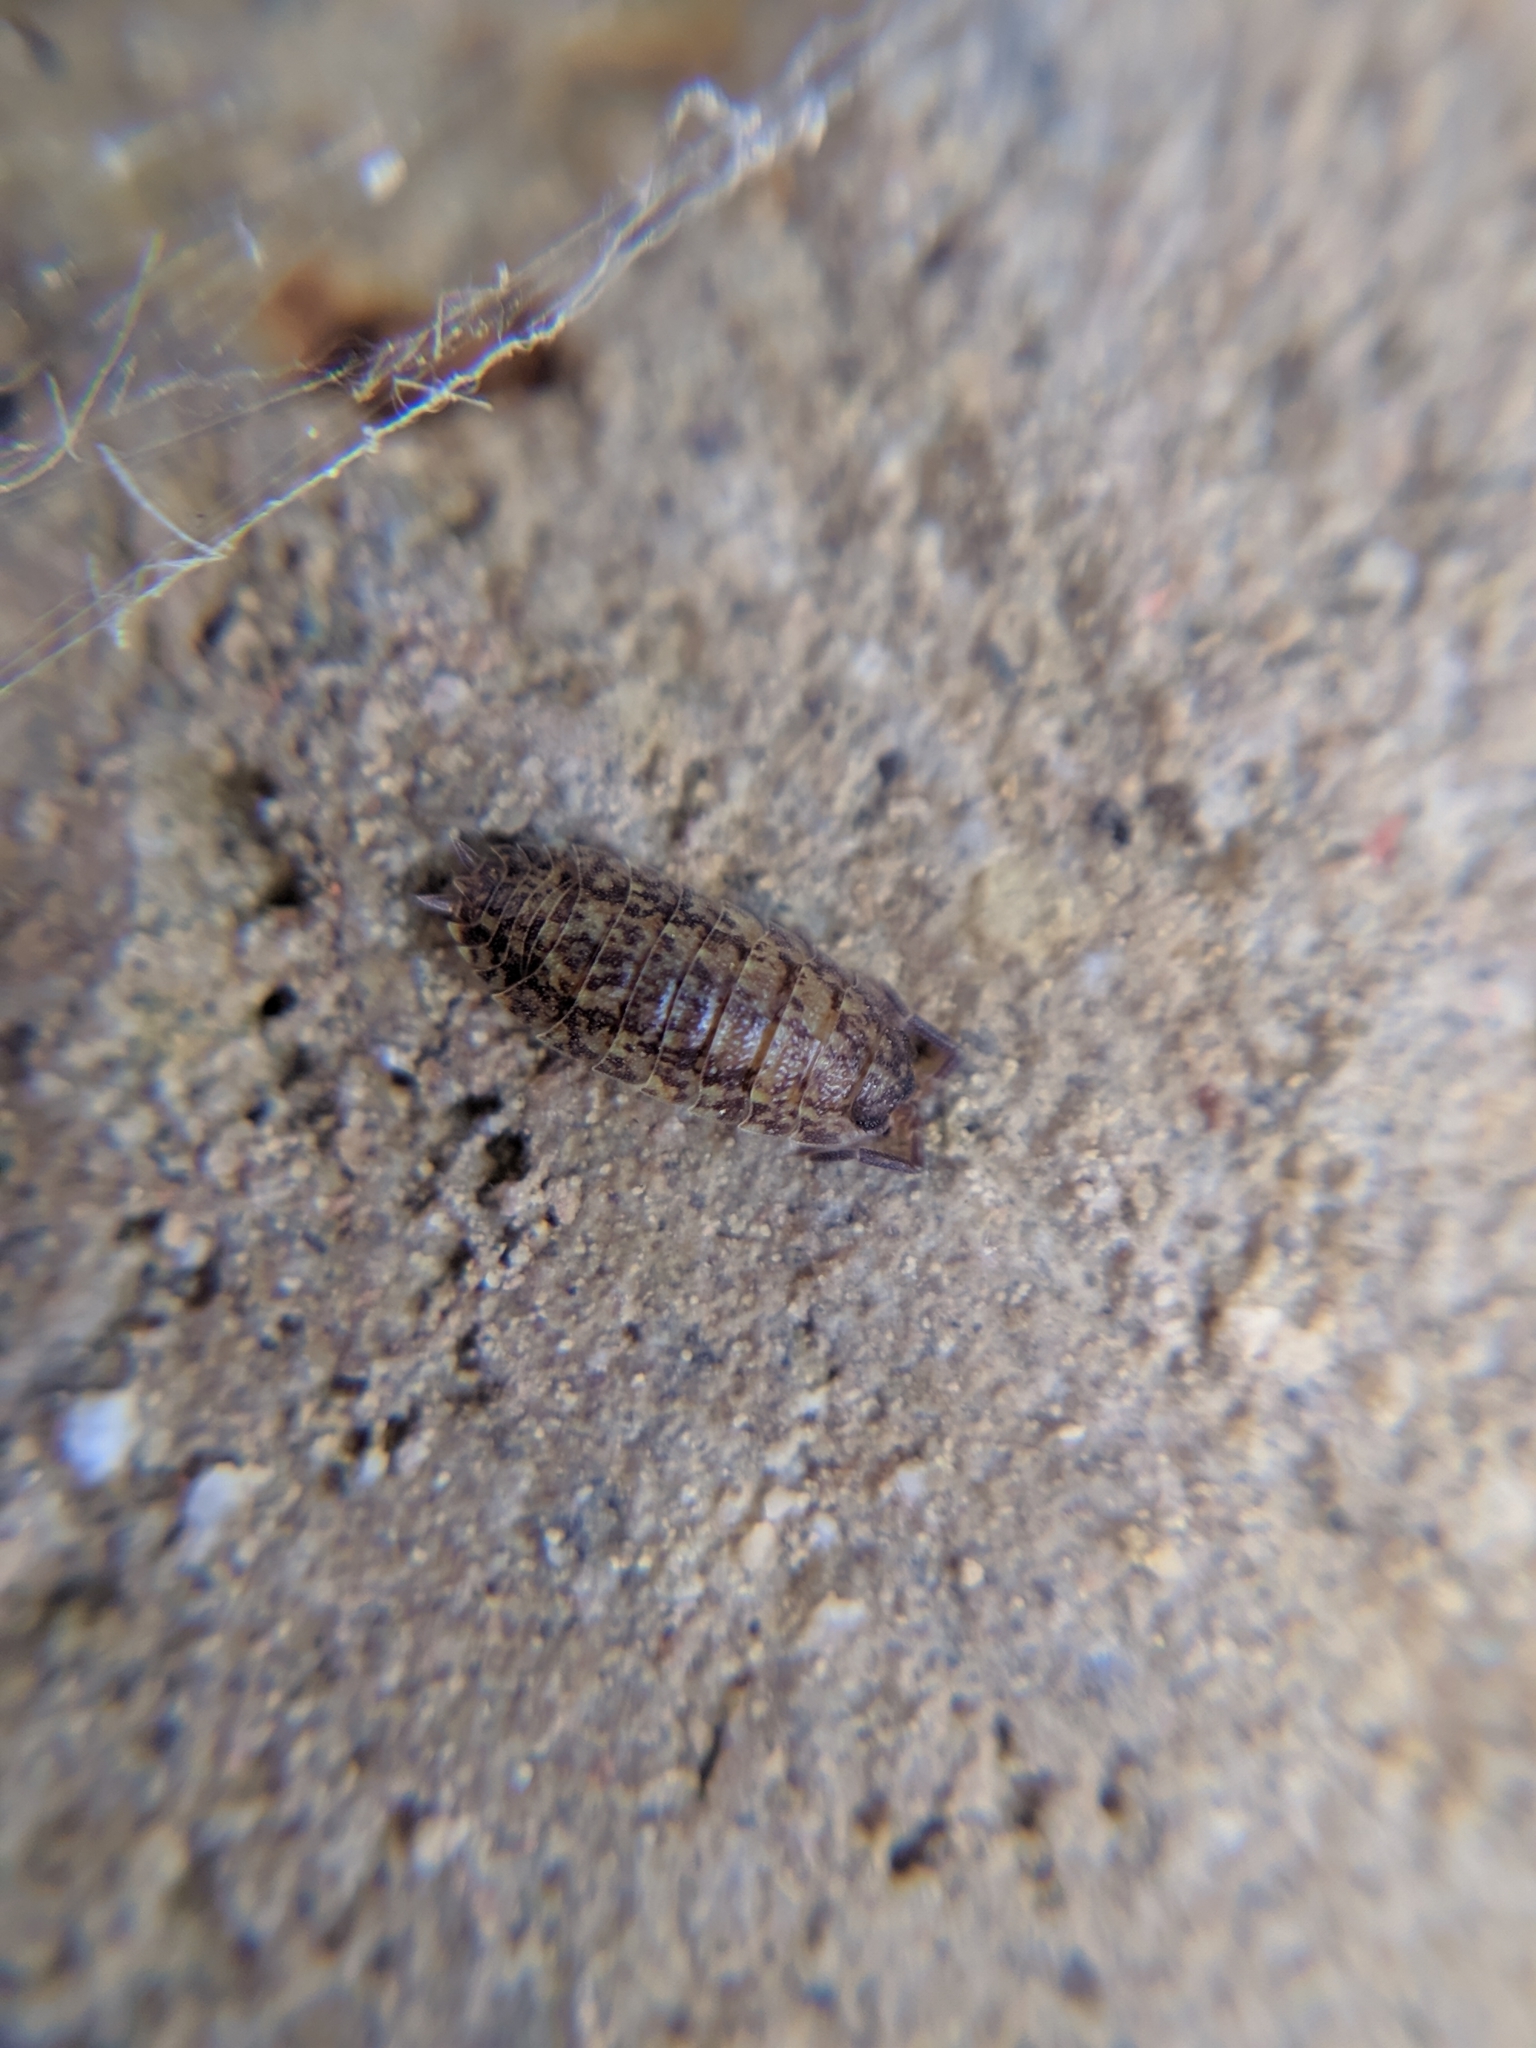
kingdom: Animalia
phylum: Arthropoda
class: Malacostraca
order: Isopoda
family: Porcellionidae
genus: Porcellio
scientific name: Porcellio scaber
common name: Common rough woodlouse
